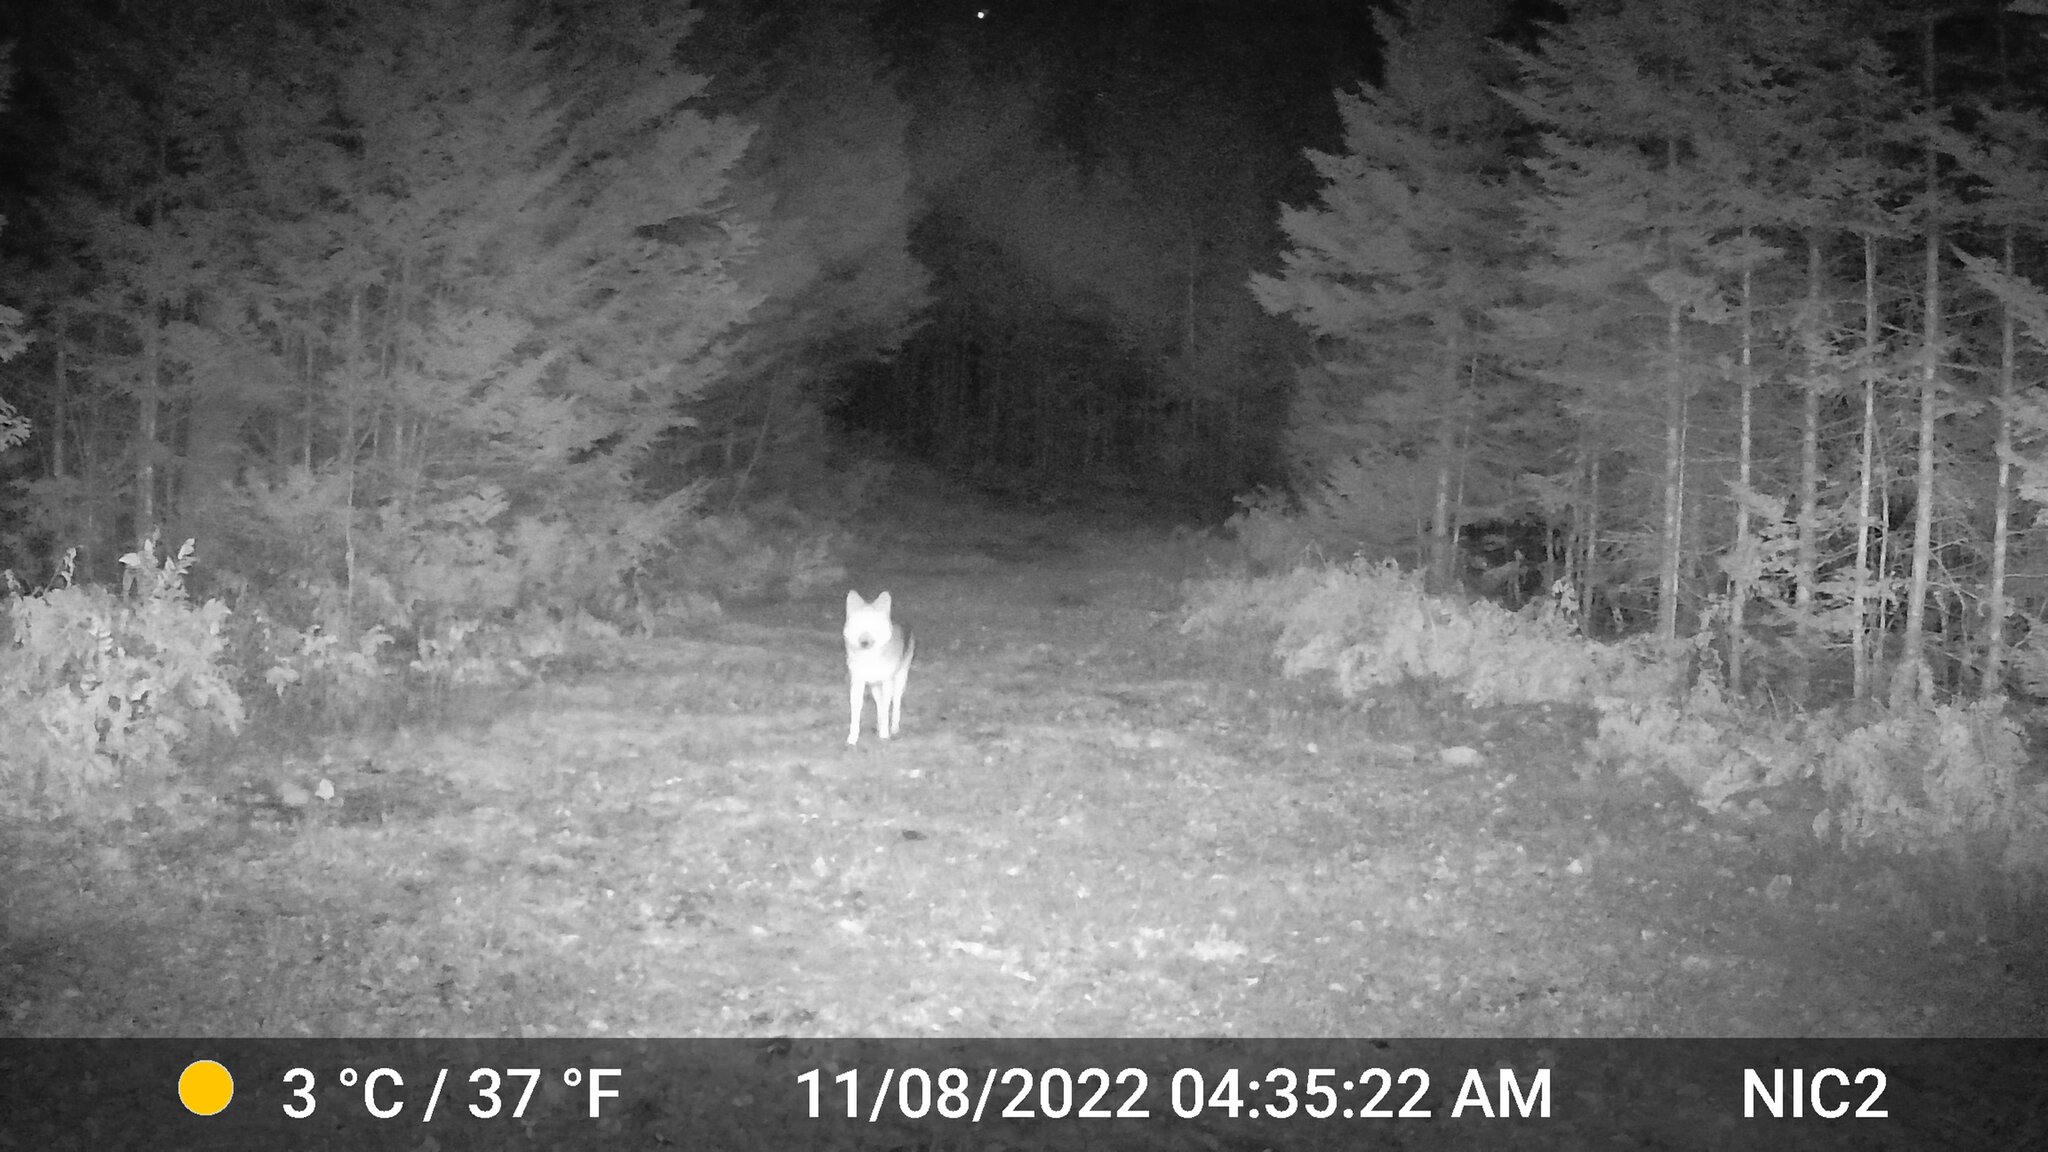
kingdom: Animalia
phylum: Chordata
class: Mammalia
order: Carnivora
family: Canidae
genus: Canis
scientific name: Canis latrans
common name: Coyote
